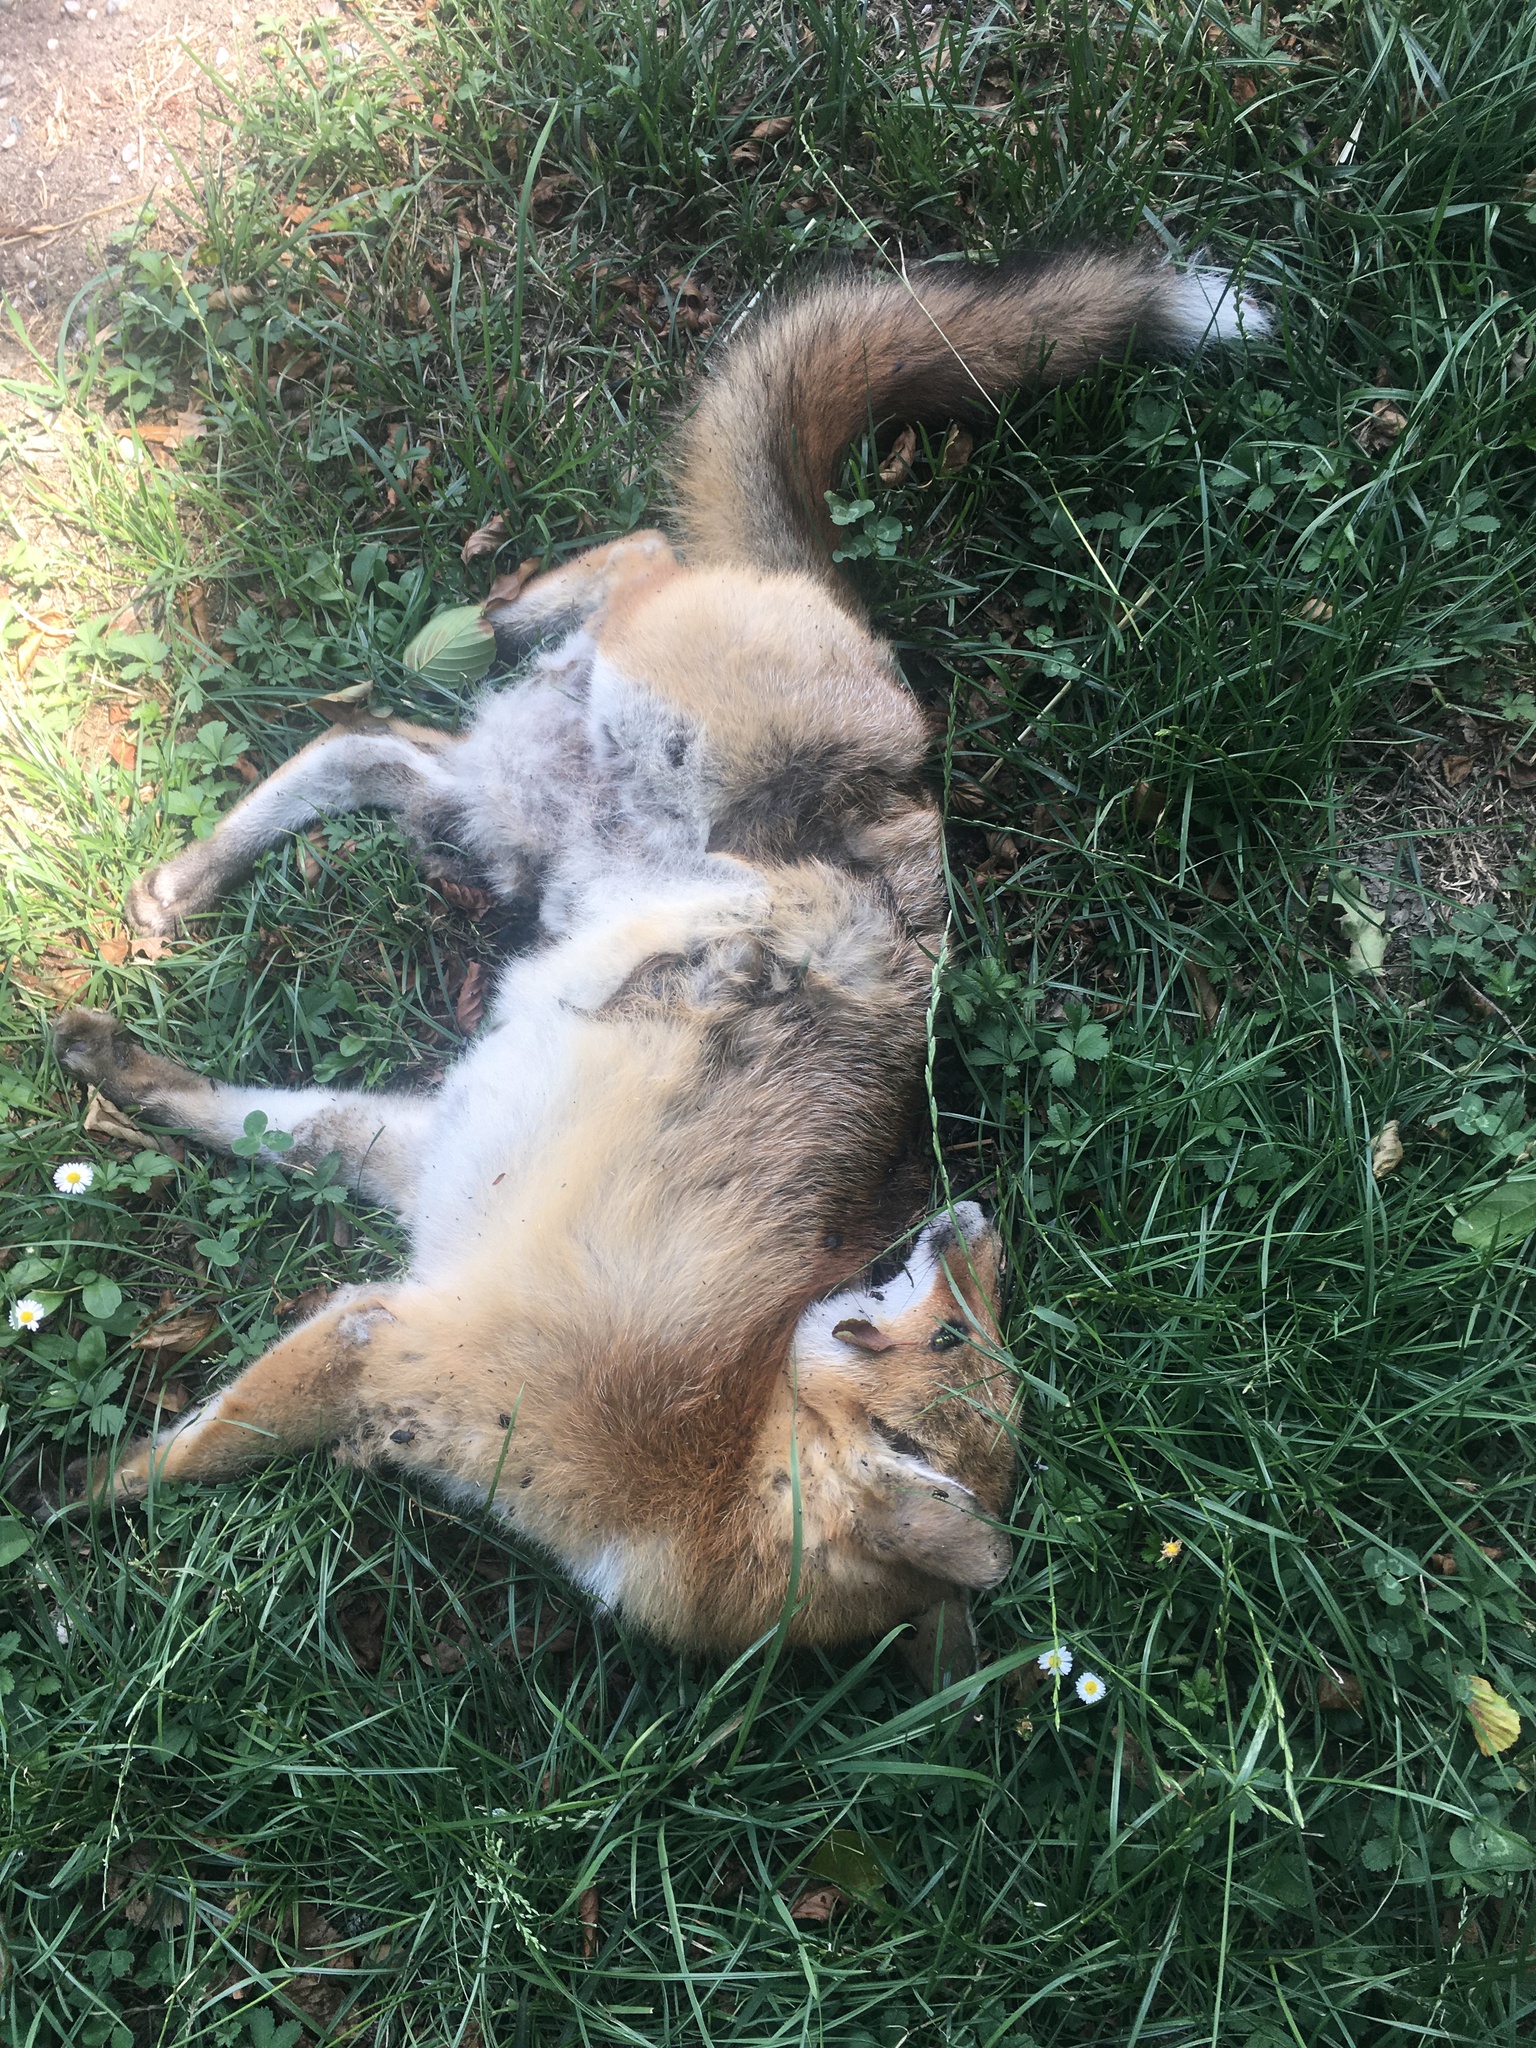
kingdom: Animalia
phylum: Chordata
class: Mammalia
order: Carnivora
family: Canidae
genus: Vulpes
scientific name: Vulpes vulpes
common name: Red fox
